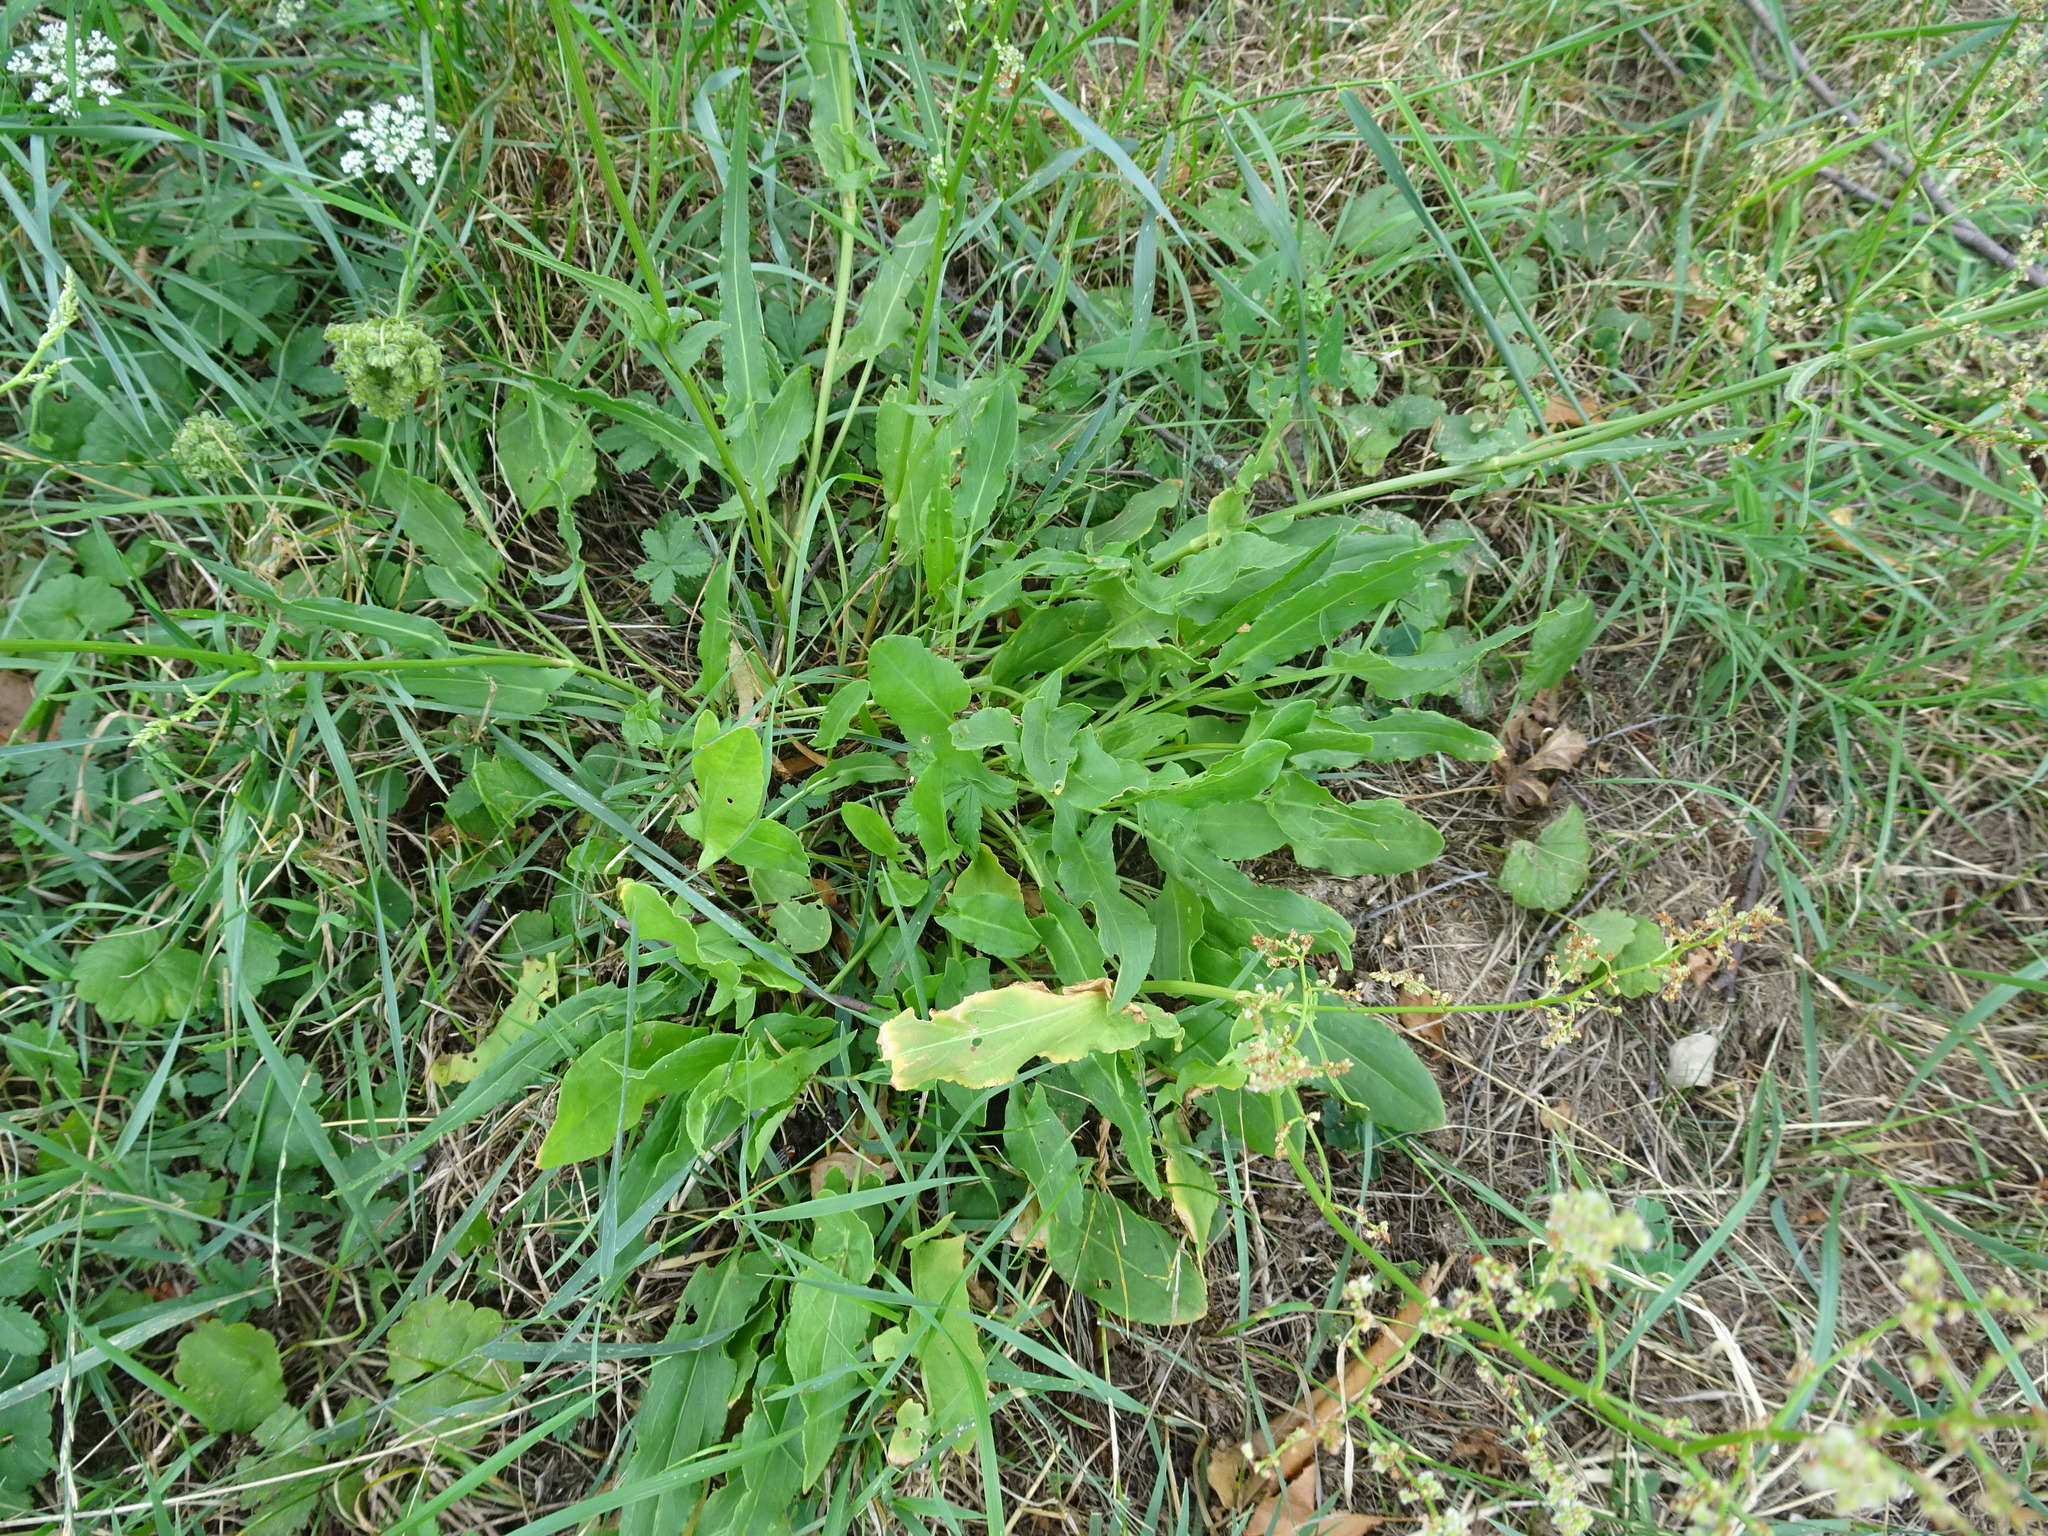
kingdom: Plantae
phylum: Tracheophyta
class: Magnoliopsida
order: Caryophyllales
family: Polygonaceae
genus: Rumex
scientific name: Rumex acetosa
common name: Garden sorrel
